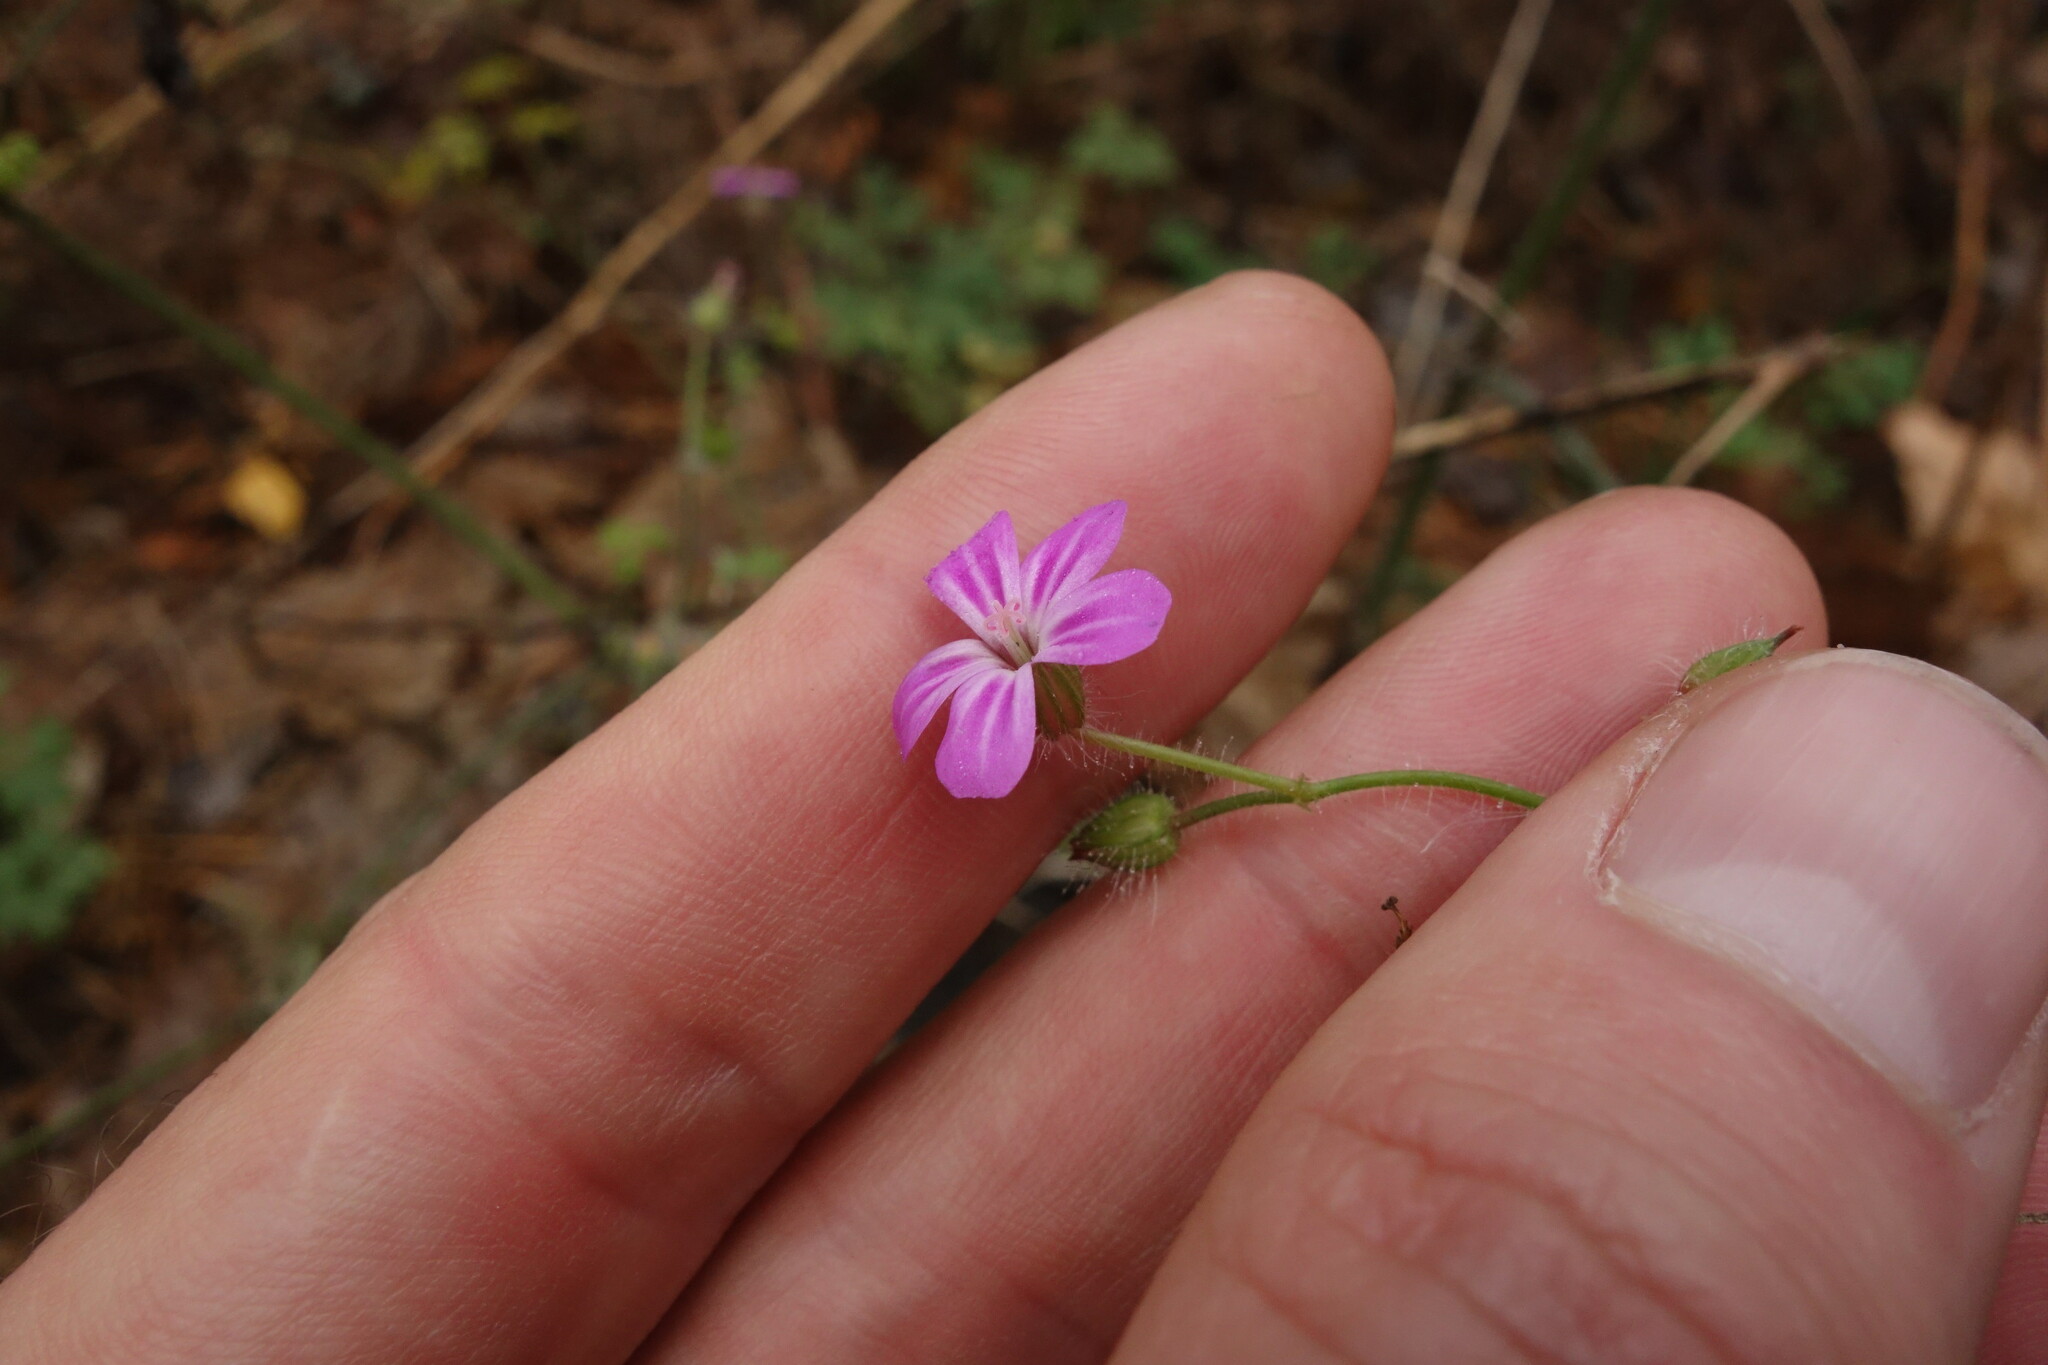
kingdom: Plantae
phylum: Tracheophyta
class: Magnoliopsida
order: Geraniales
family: Geraniaceae
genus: Geranium
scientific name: Geranium robertianum
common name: Herb-robert
